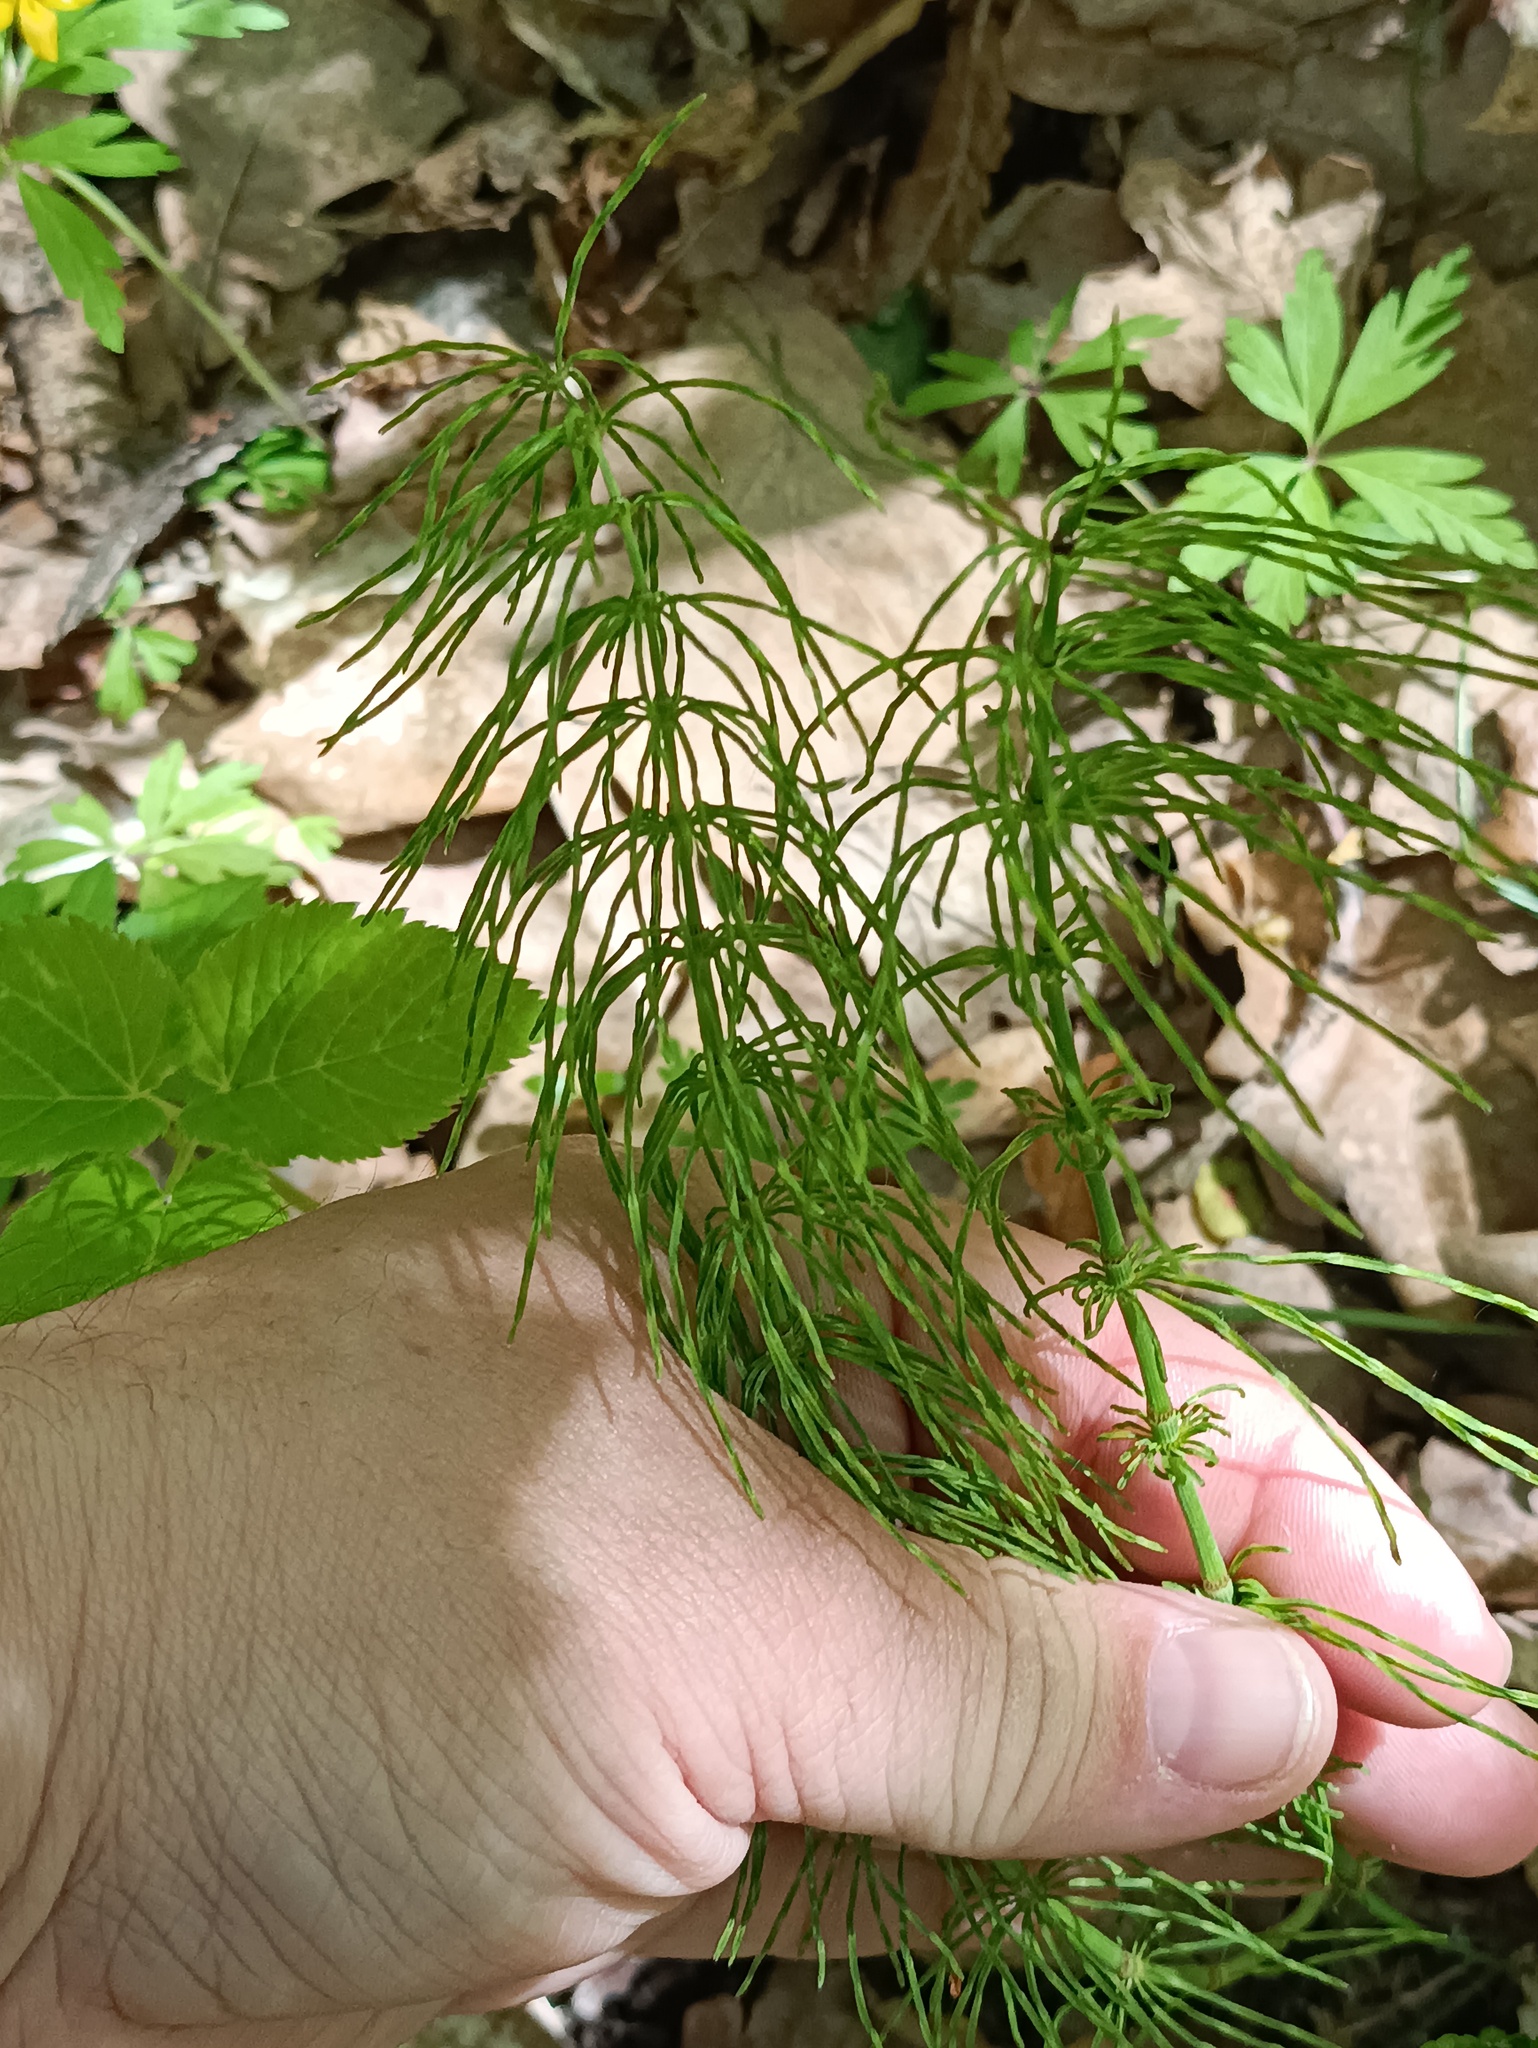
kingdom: Plantae
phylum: Tracheophyta
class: Polypodiopsida
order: Equisetales
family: Equisetaceae
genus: Equisetum
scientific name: Equisetum pratense
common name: Meadow horsetail
